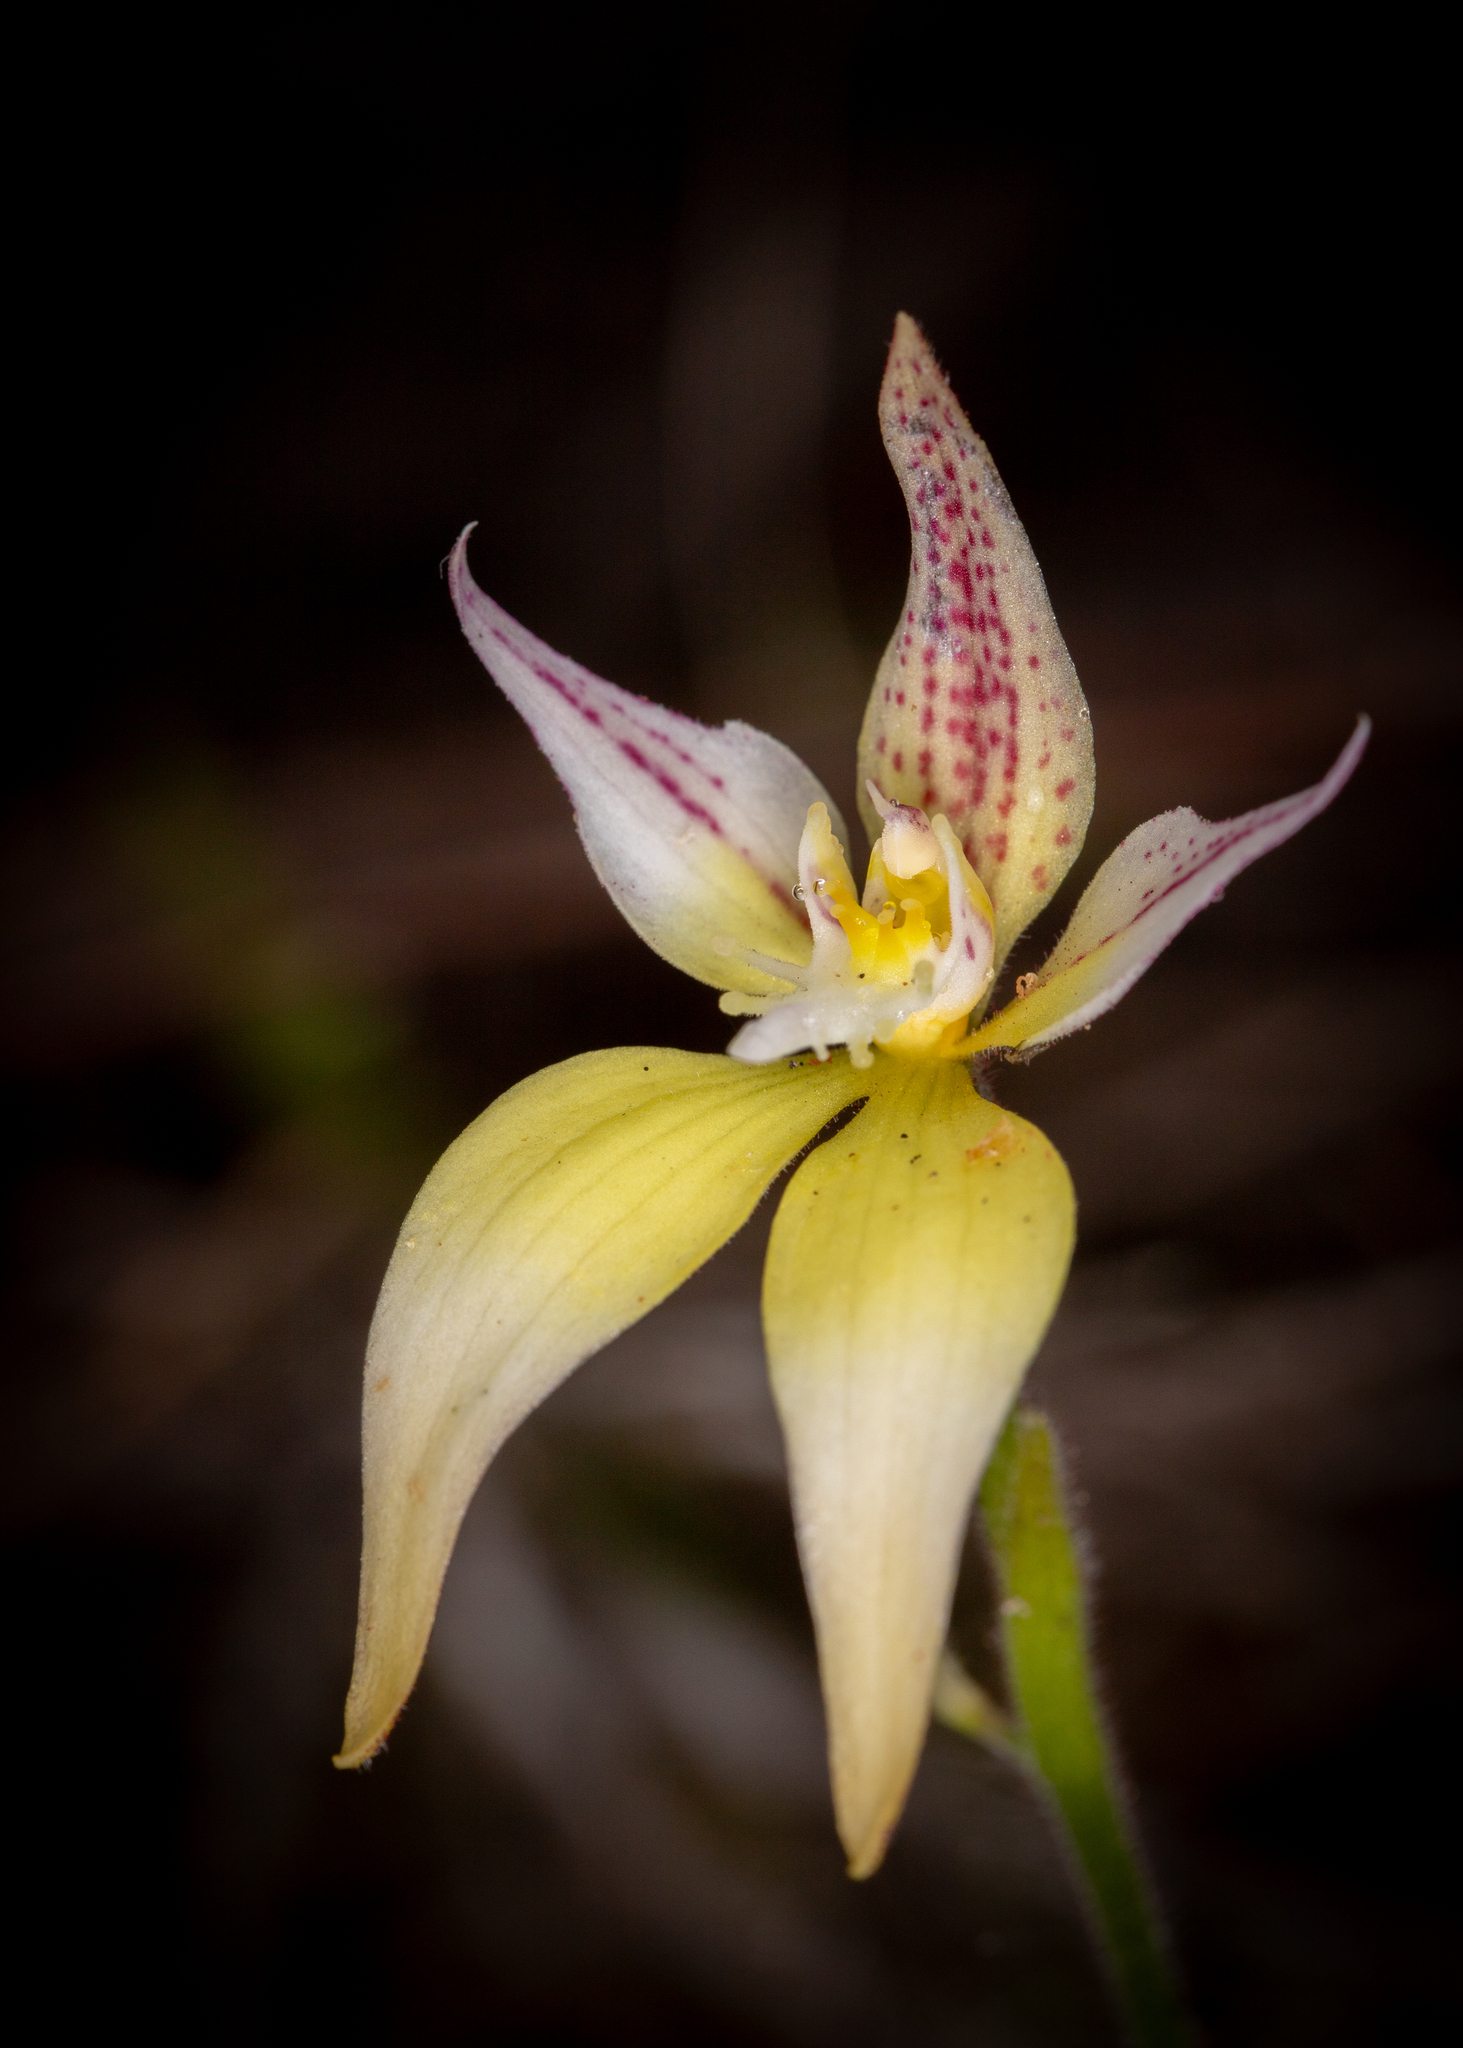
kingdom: Plantae
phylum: Tracheophyta
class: Liliopsida
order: Asparagales
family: Orchidaceae
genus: Caladenia
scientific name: Caladenia flava
